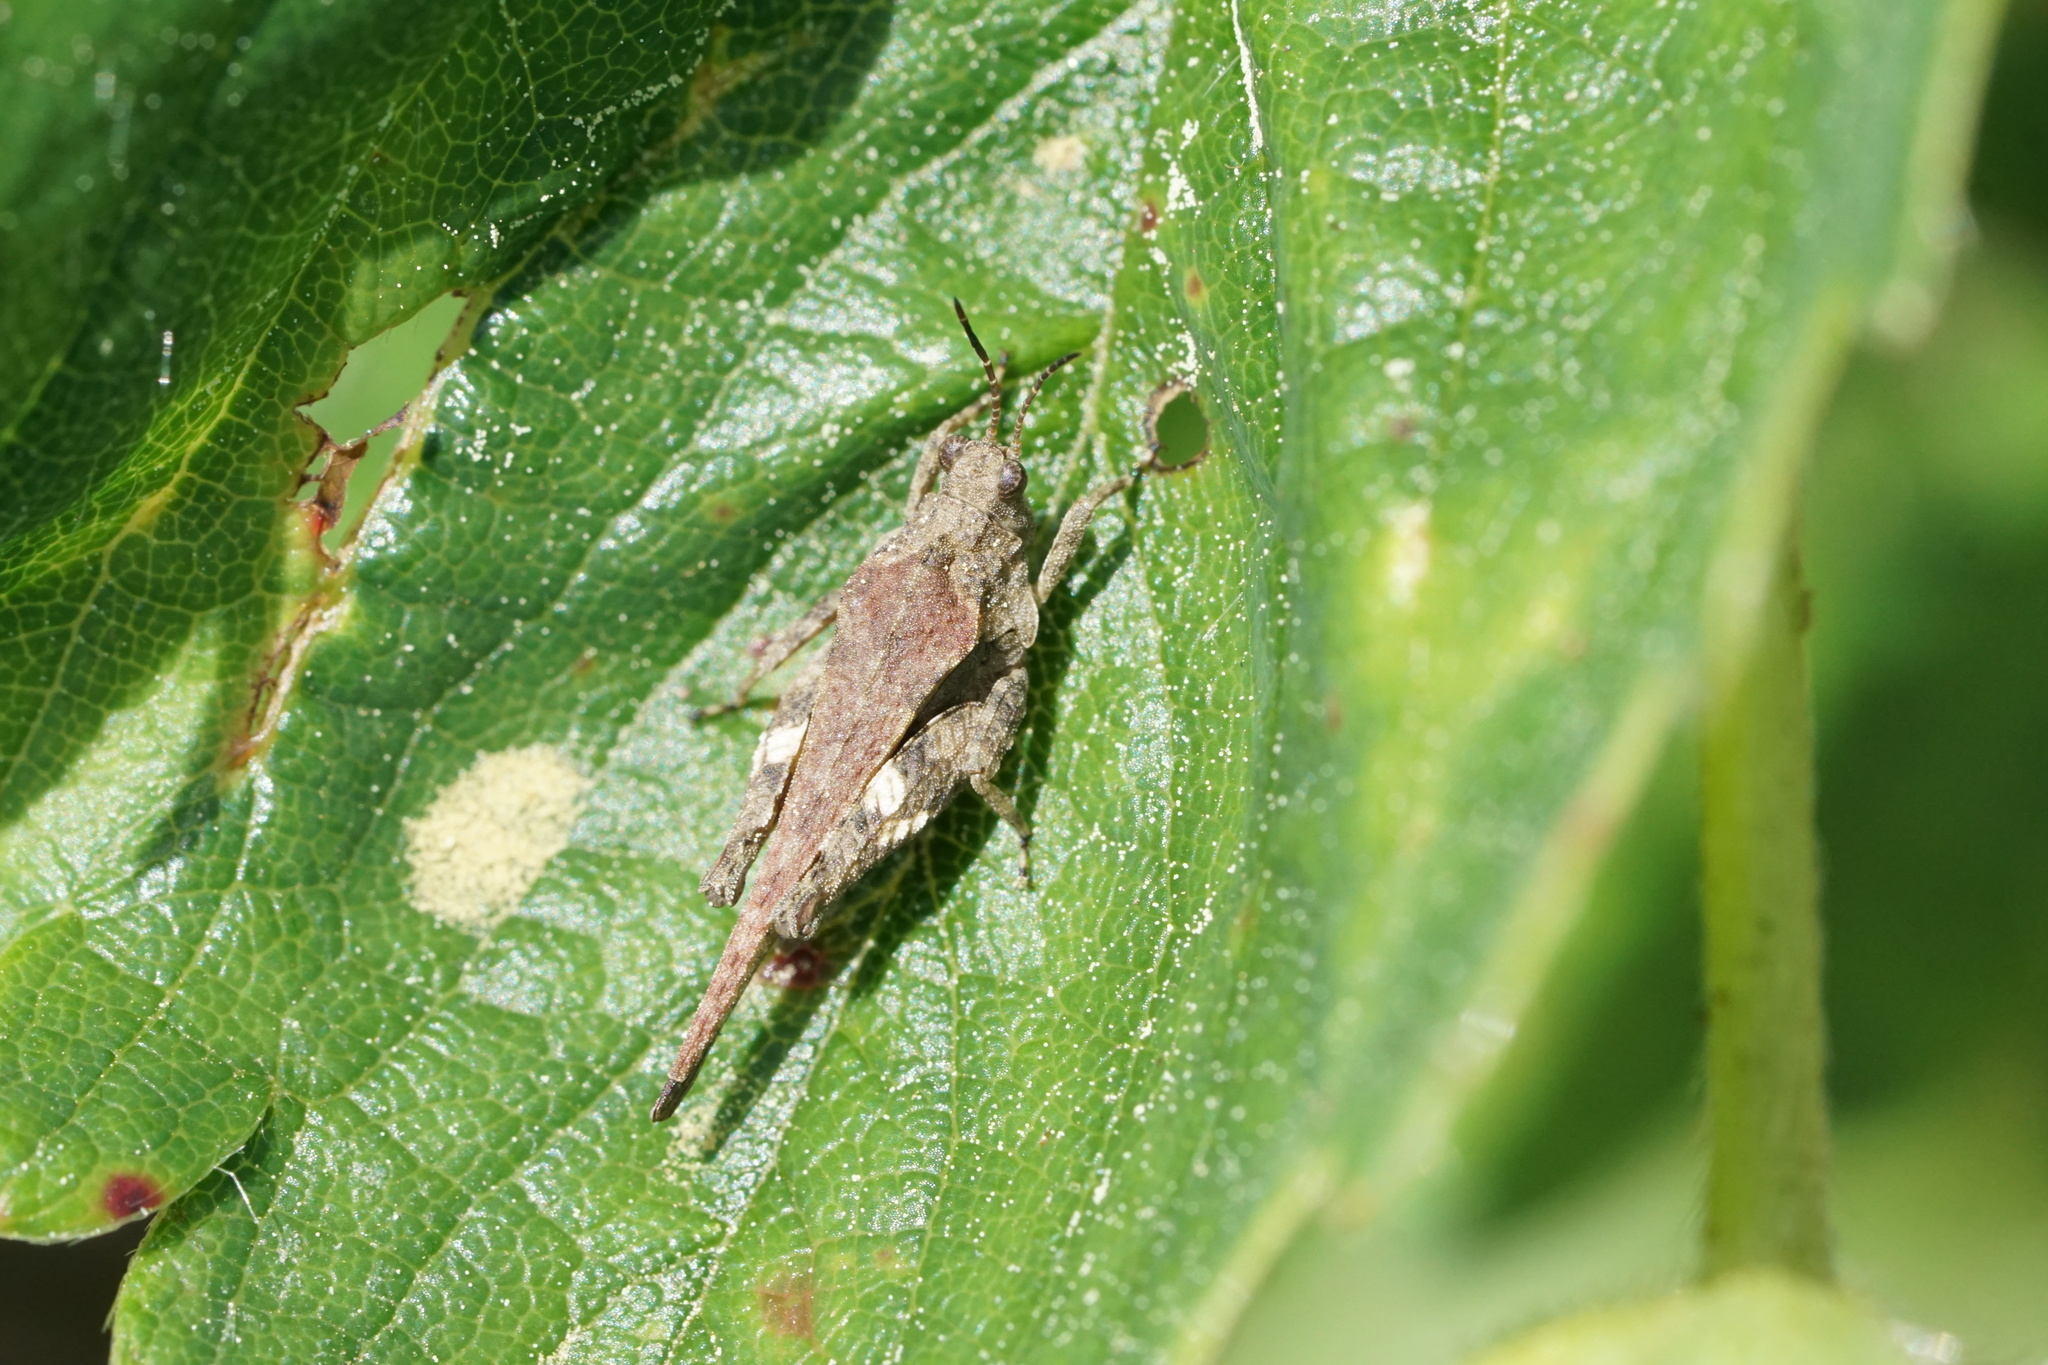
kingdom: Animalia
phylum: Arthropoda
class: Insecta
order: Orthoptera
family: Tetrigidae
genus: Tetrix
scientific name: Tetrix ornata
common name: Ornate grouse locust
